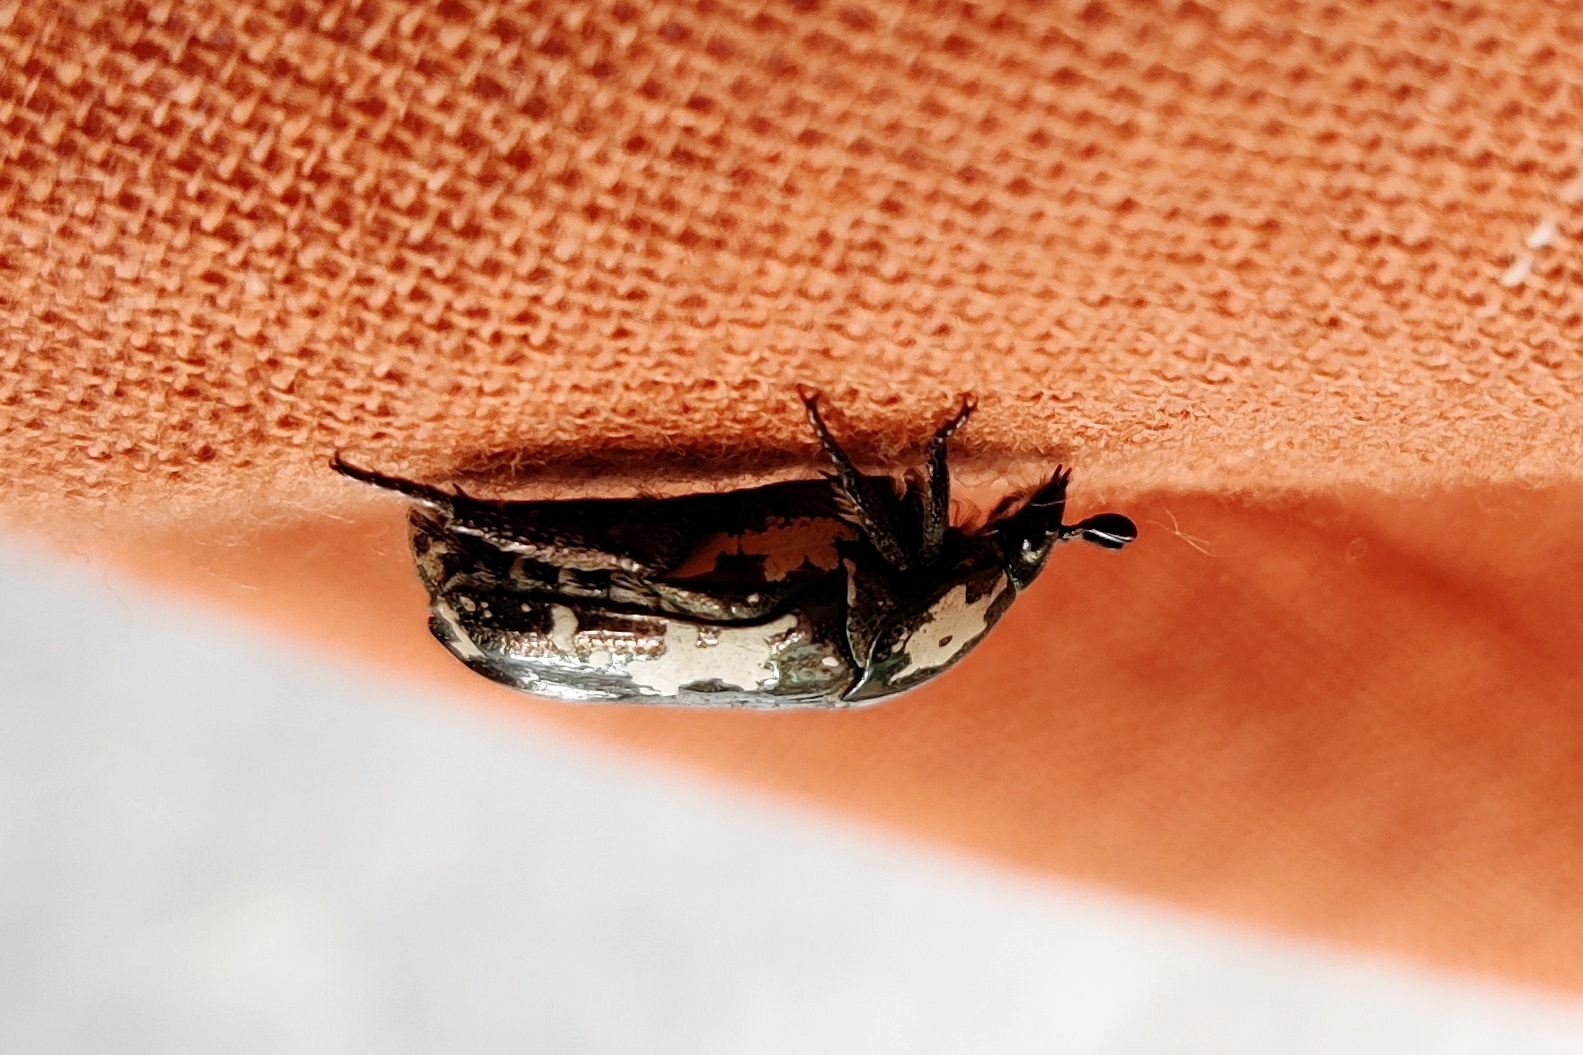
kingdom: Animalia
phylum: Arthropoda
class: Insecta
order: Coleoptera
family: Scarabaeidae
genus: Protaetia
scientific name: Protaetia aurichalcea
